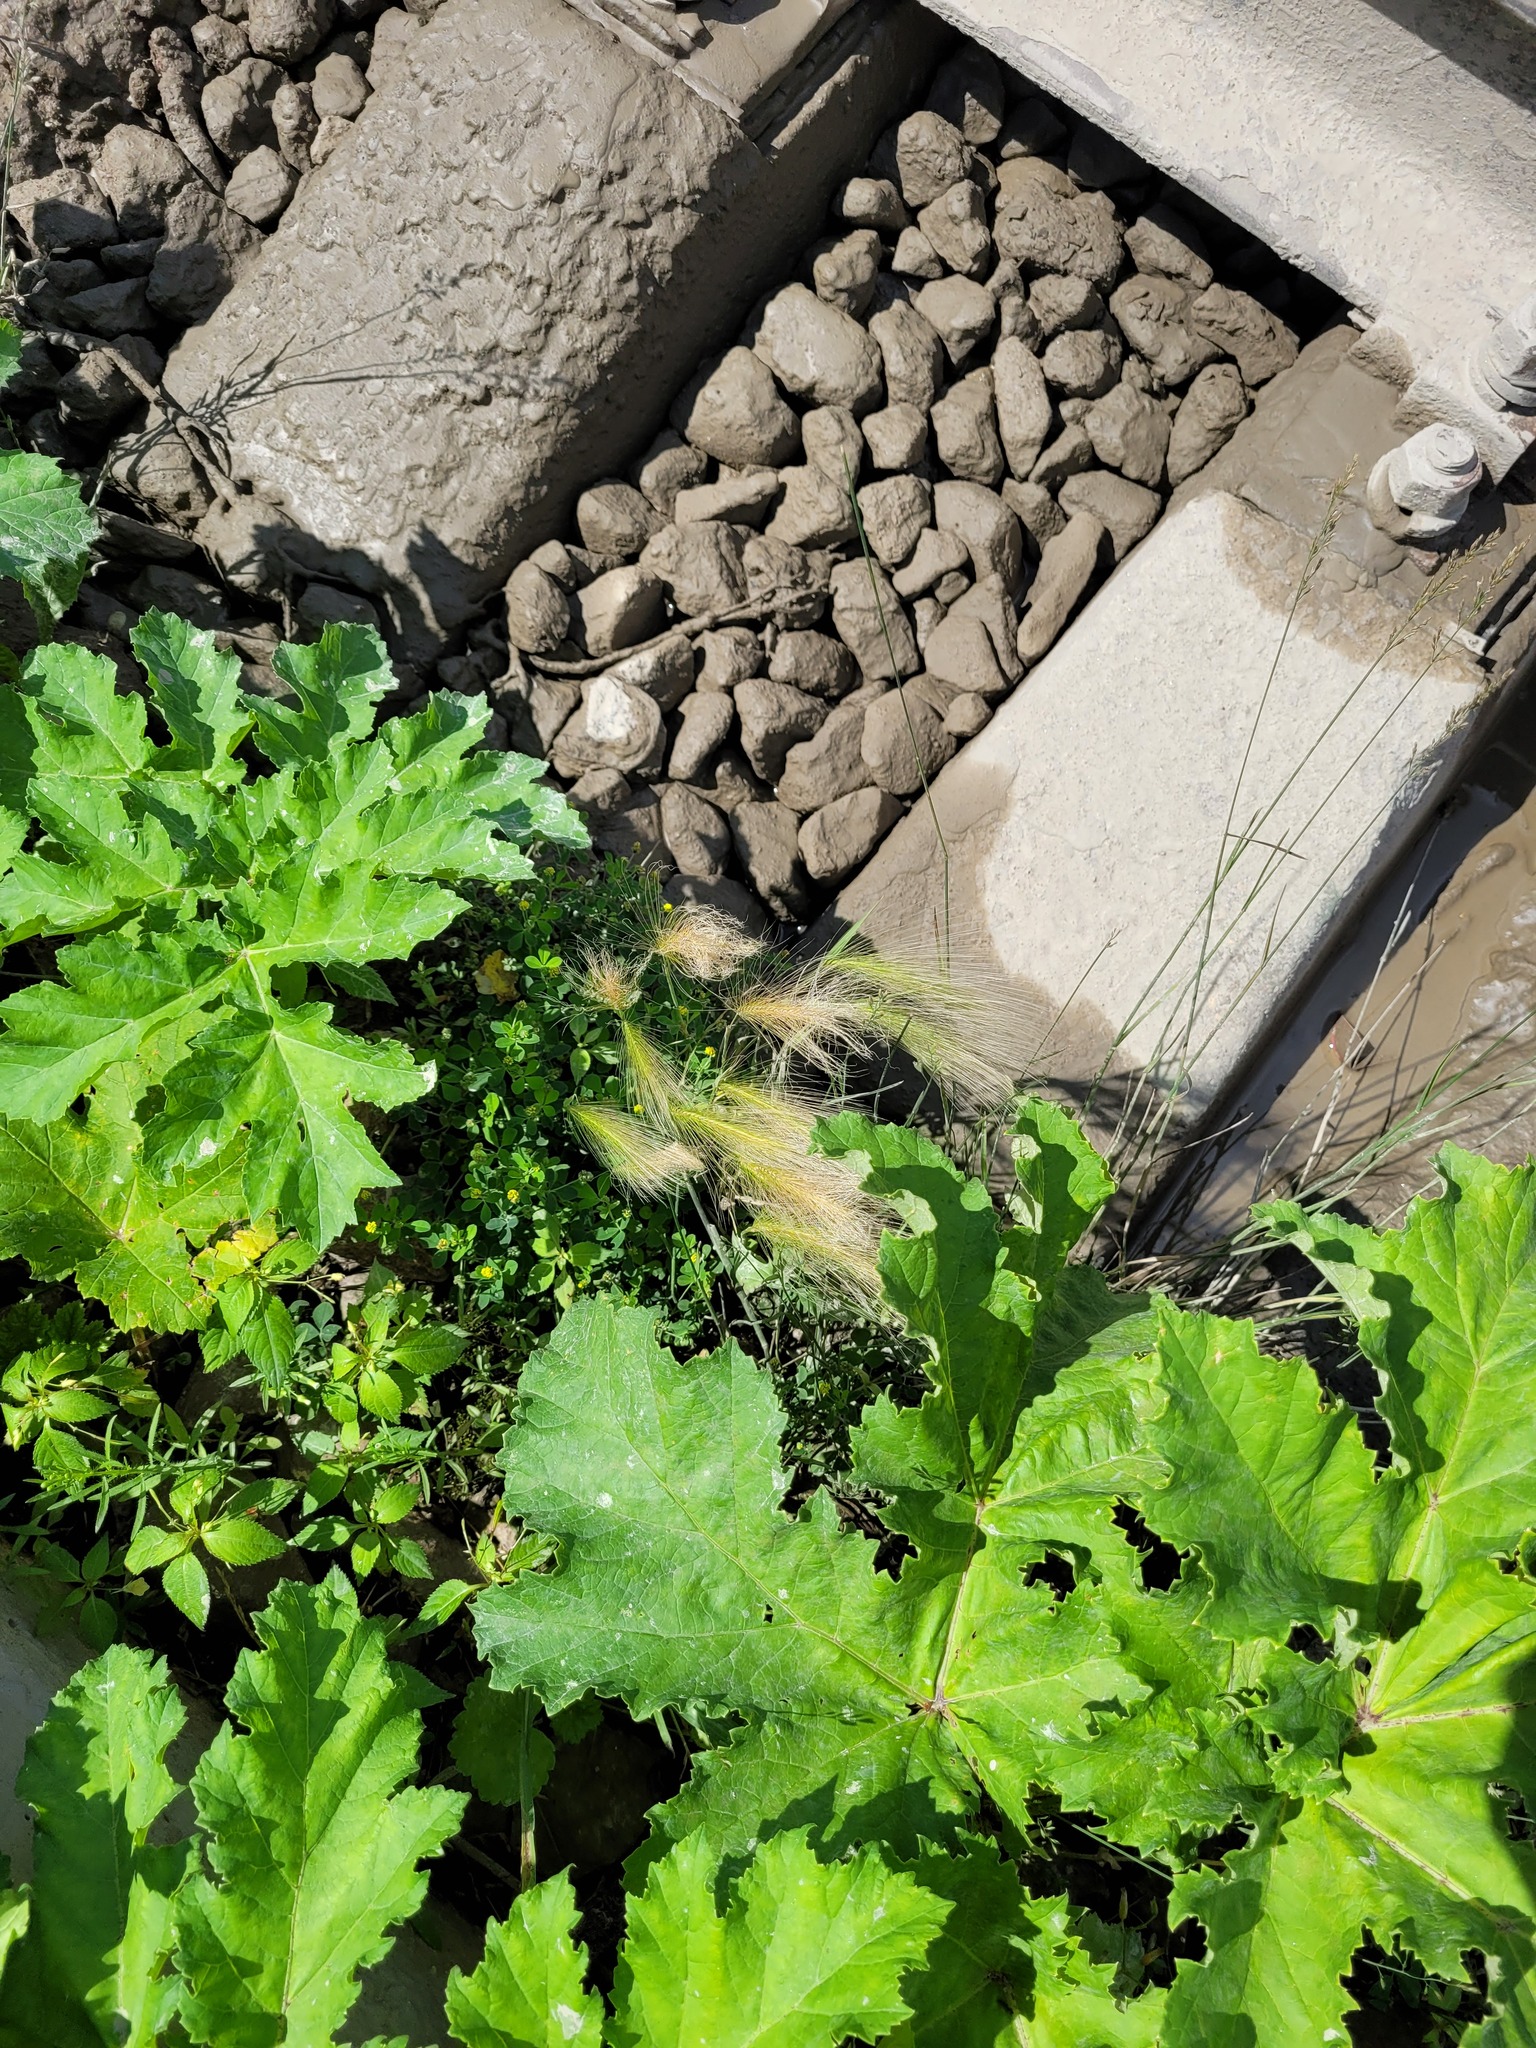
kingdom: Plantae
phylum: Tracheophyta
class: Liliopsida
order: Poales
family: Poaceae
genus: Hordeum
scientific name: Hordeum jubatum
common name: Foxtail barley
